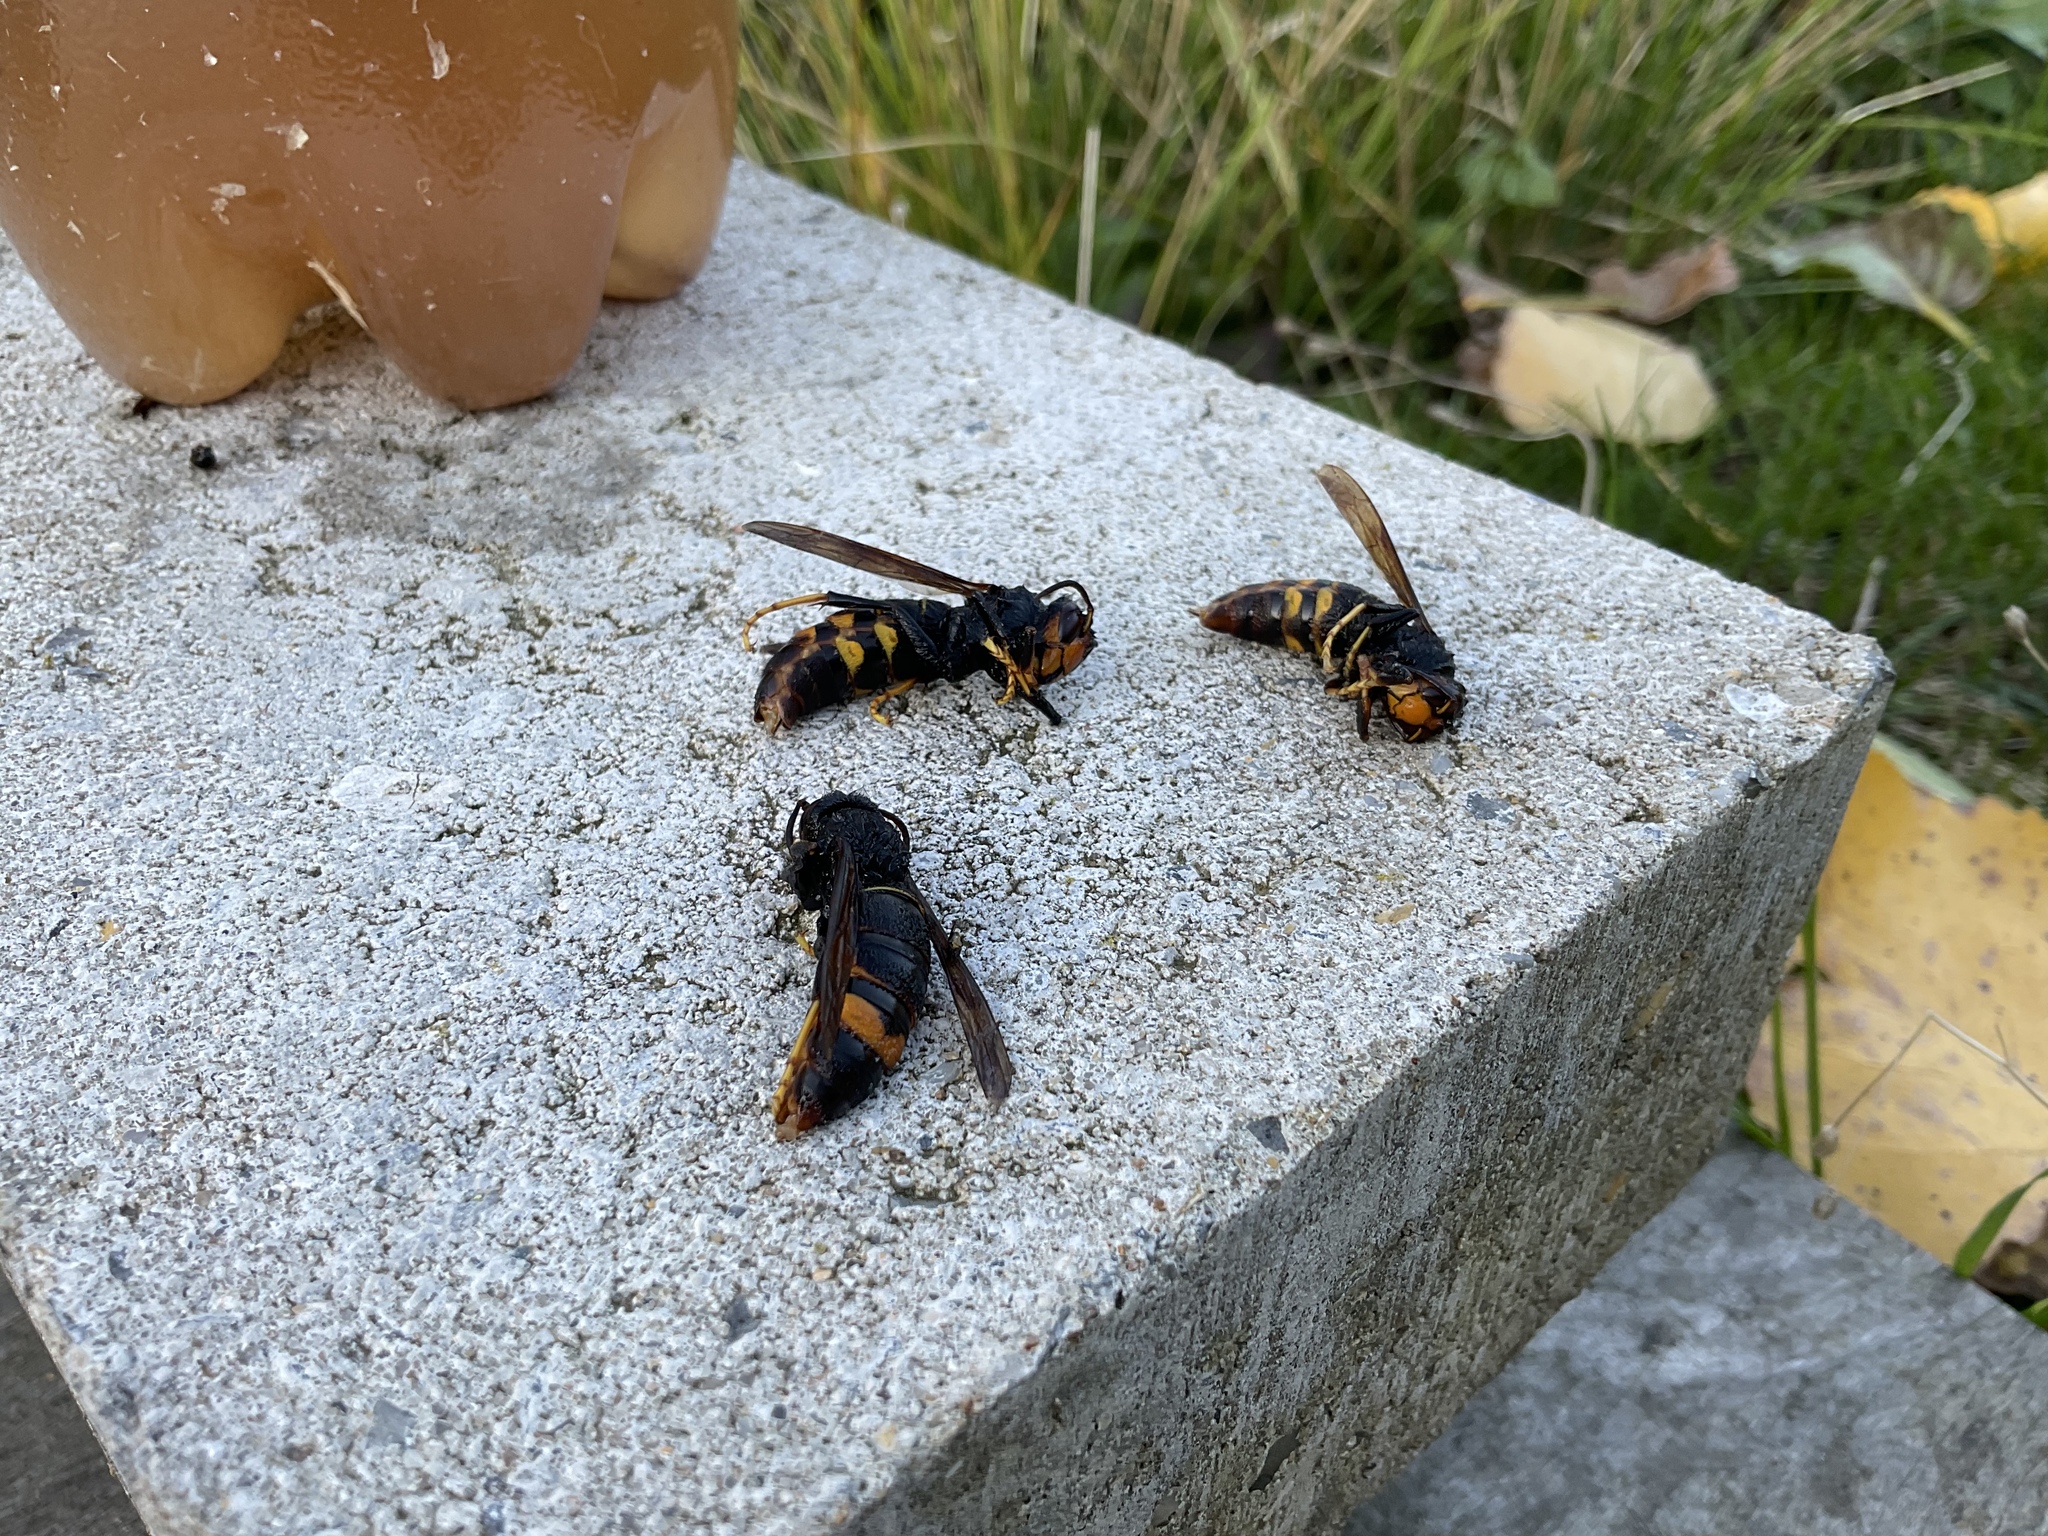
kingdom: Animalia
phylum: Arthropoda
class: Insecta
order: Hymenoptera
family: Vespidae
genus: Vespa
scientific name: Vespa velutina
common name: Asian hornet
